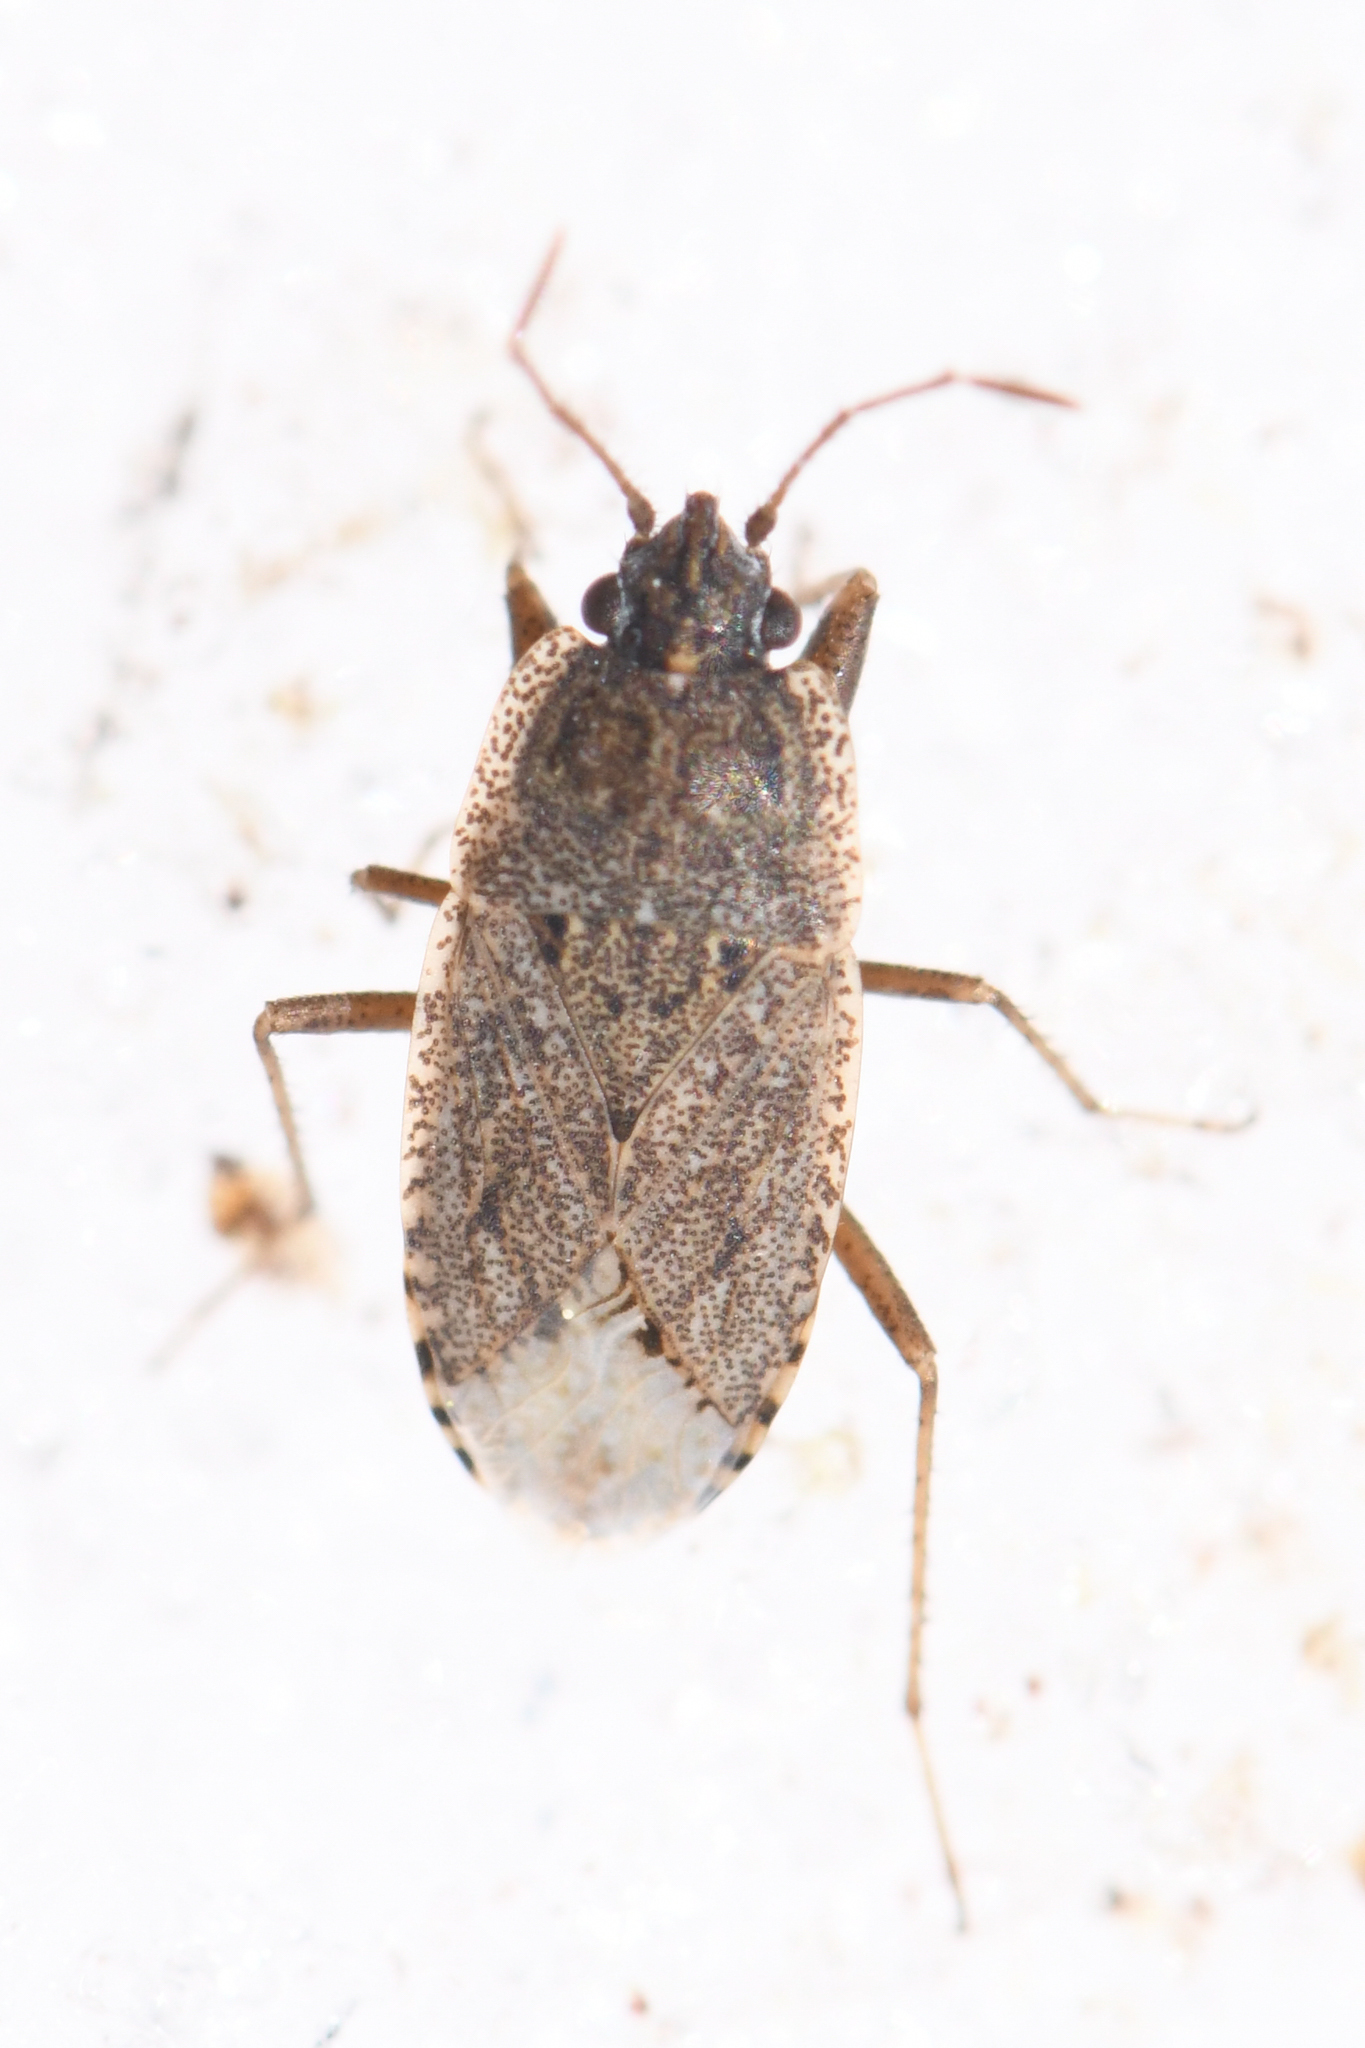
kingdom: Animalia
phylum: Arthropoda
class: Insecta
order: Hemiptera
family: Rhyparochromidae
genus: Emblethis
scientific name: Emblethis vicarius
